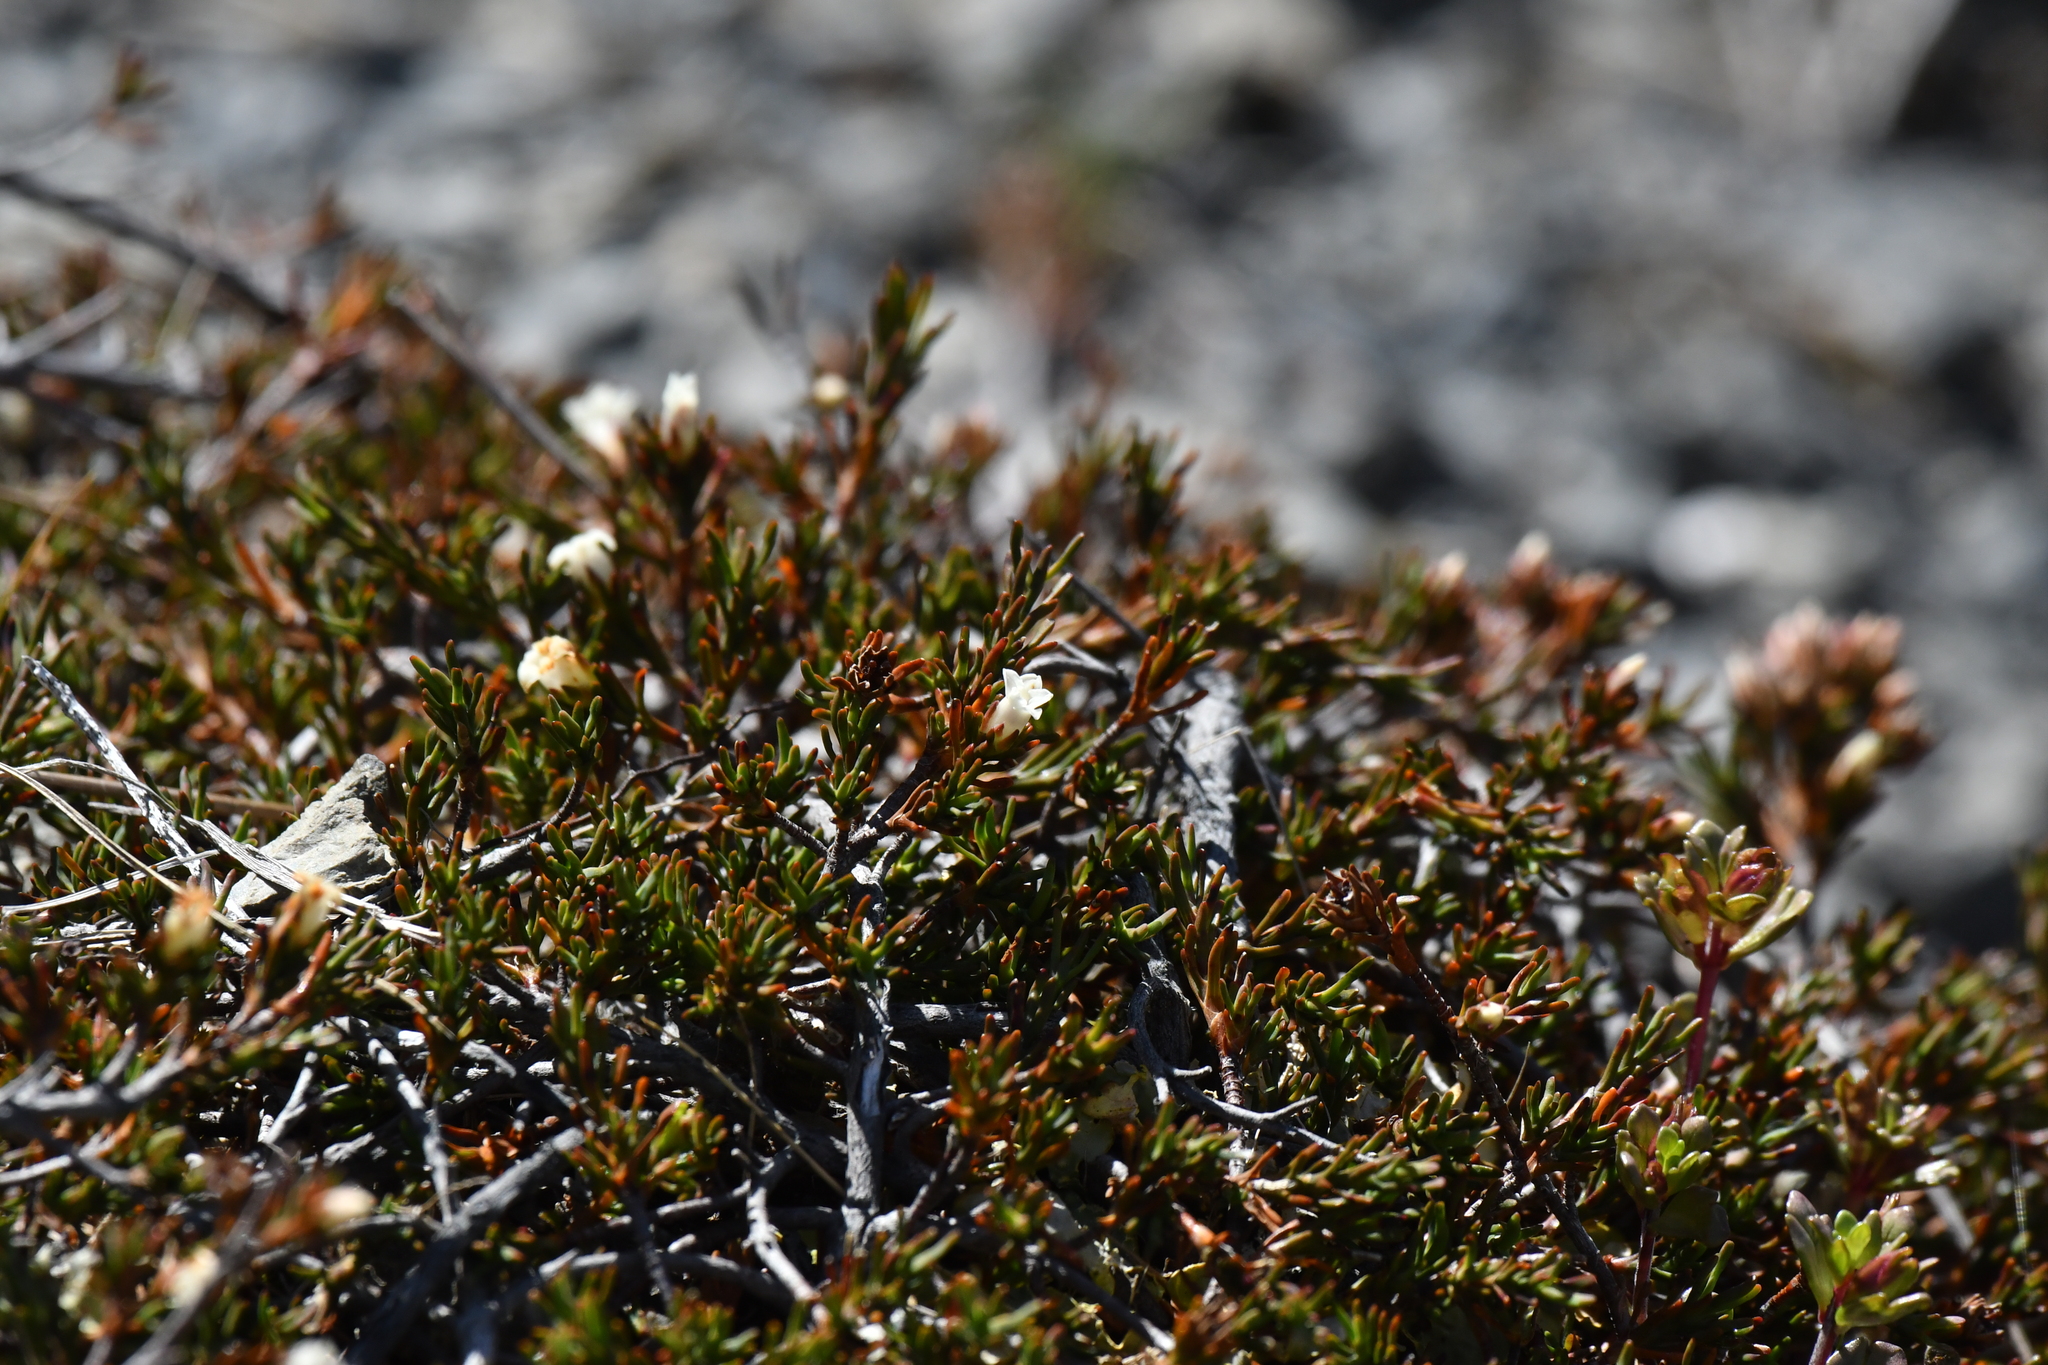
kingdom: Plantae
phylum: Tracheophyta
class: Magnoliopsida
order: Ericales
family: Ericaceae
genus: Dracophyllum
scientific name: Dracophyllum pronum
